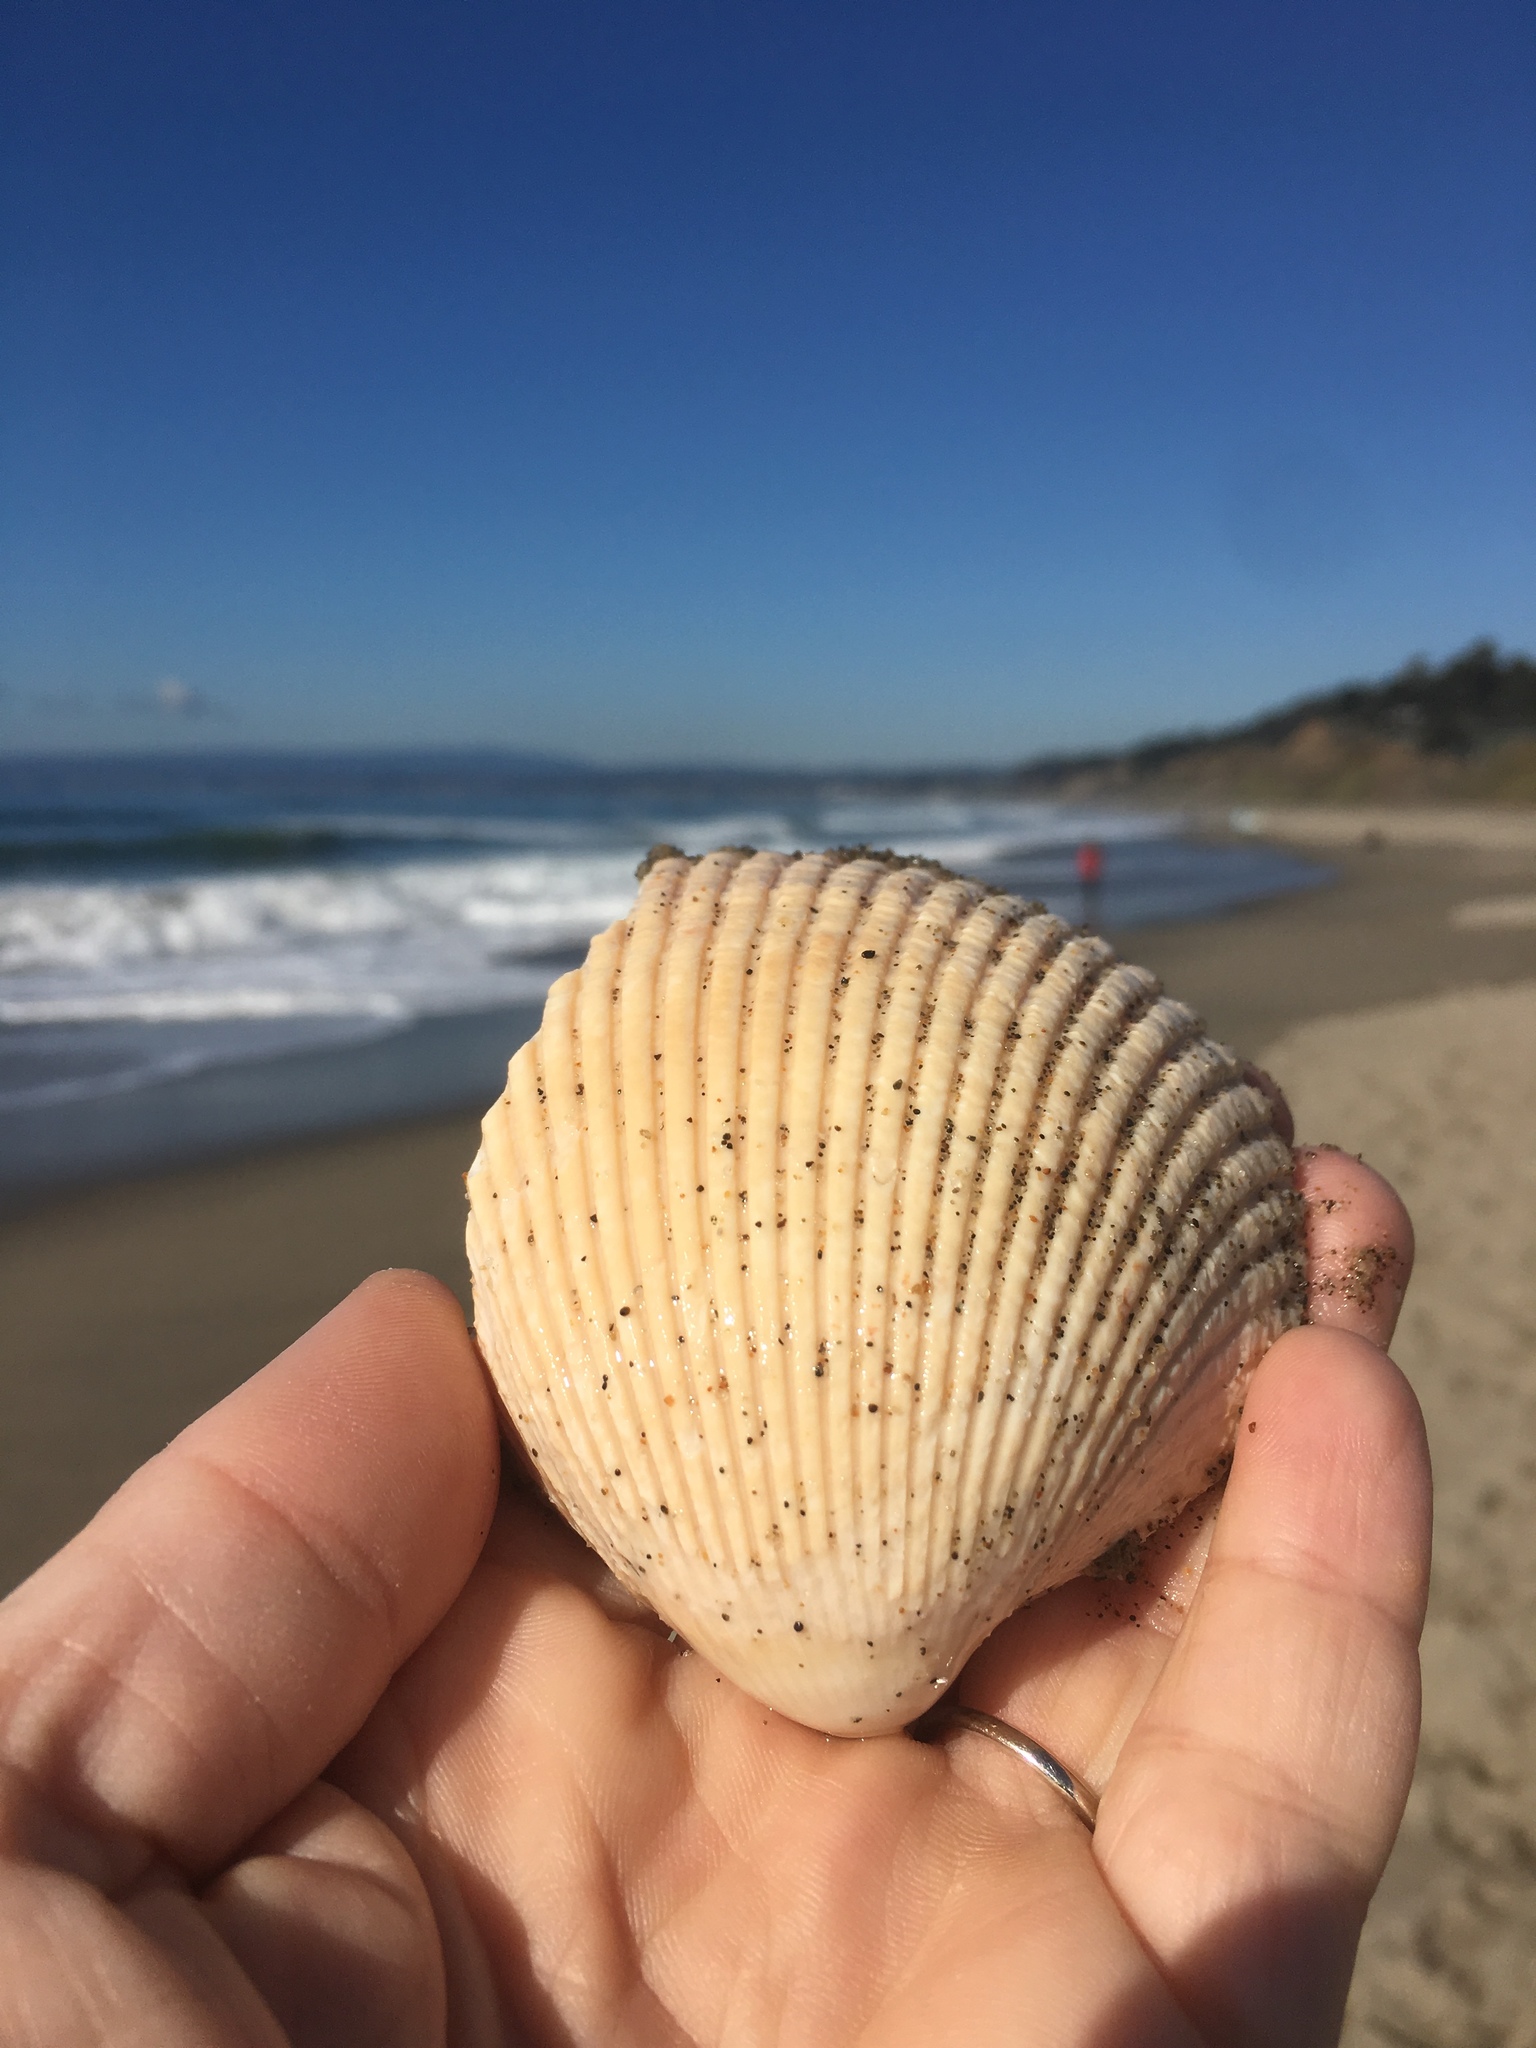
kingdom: Animalia
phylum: Mollusca
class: Bivalvia
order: Cardiida
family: Cardiidae
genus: Clinocardium
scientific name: Clinocardium nuttallii
